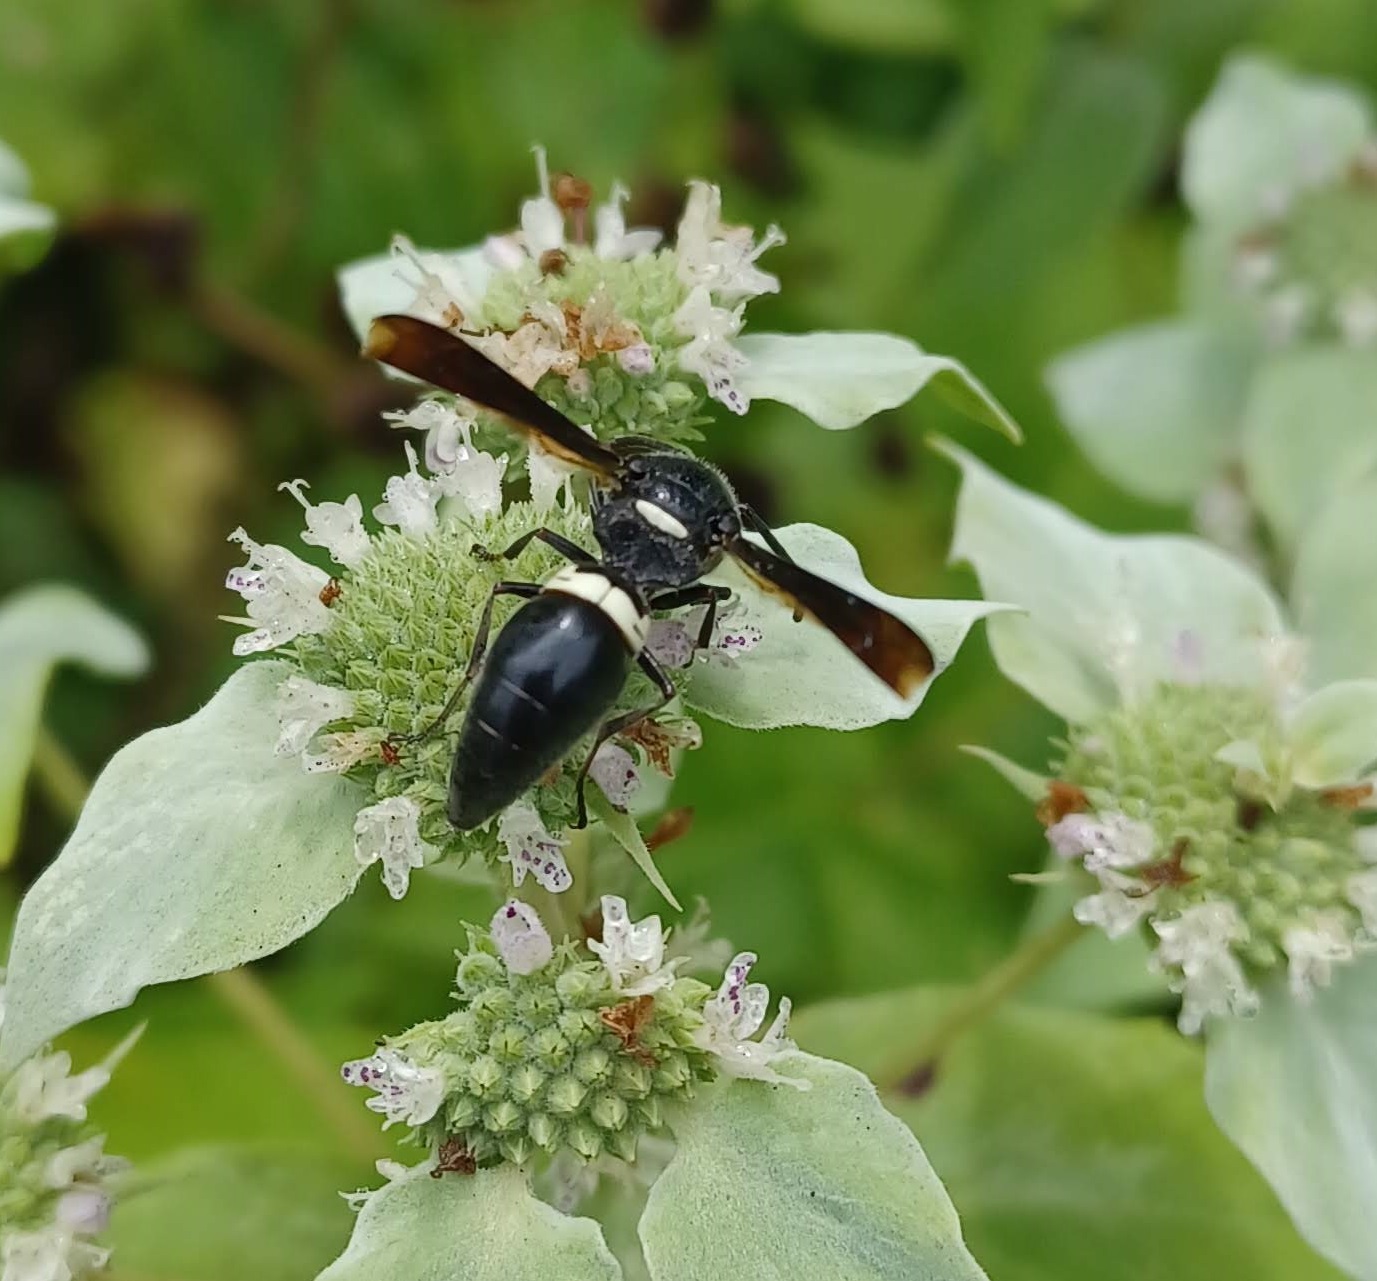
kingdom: Animalia
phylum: Arthropoda
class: Insecta
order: Hymenoptera
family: Eumenidae
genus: Monobia
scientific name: Monobia quadridens
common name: Four-toothed mason wasp
